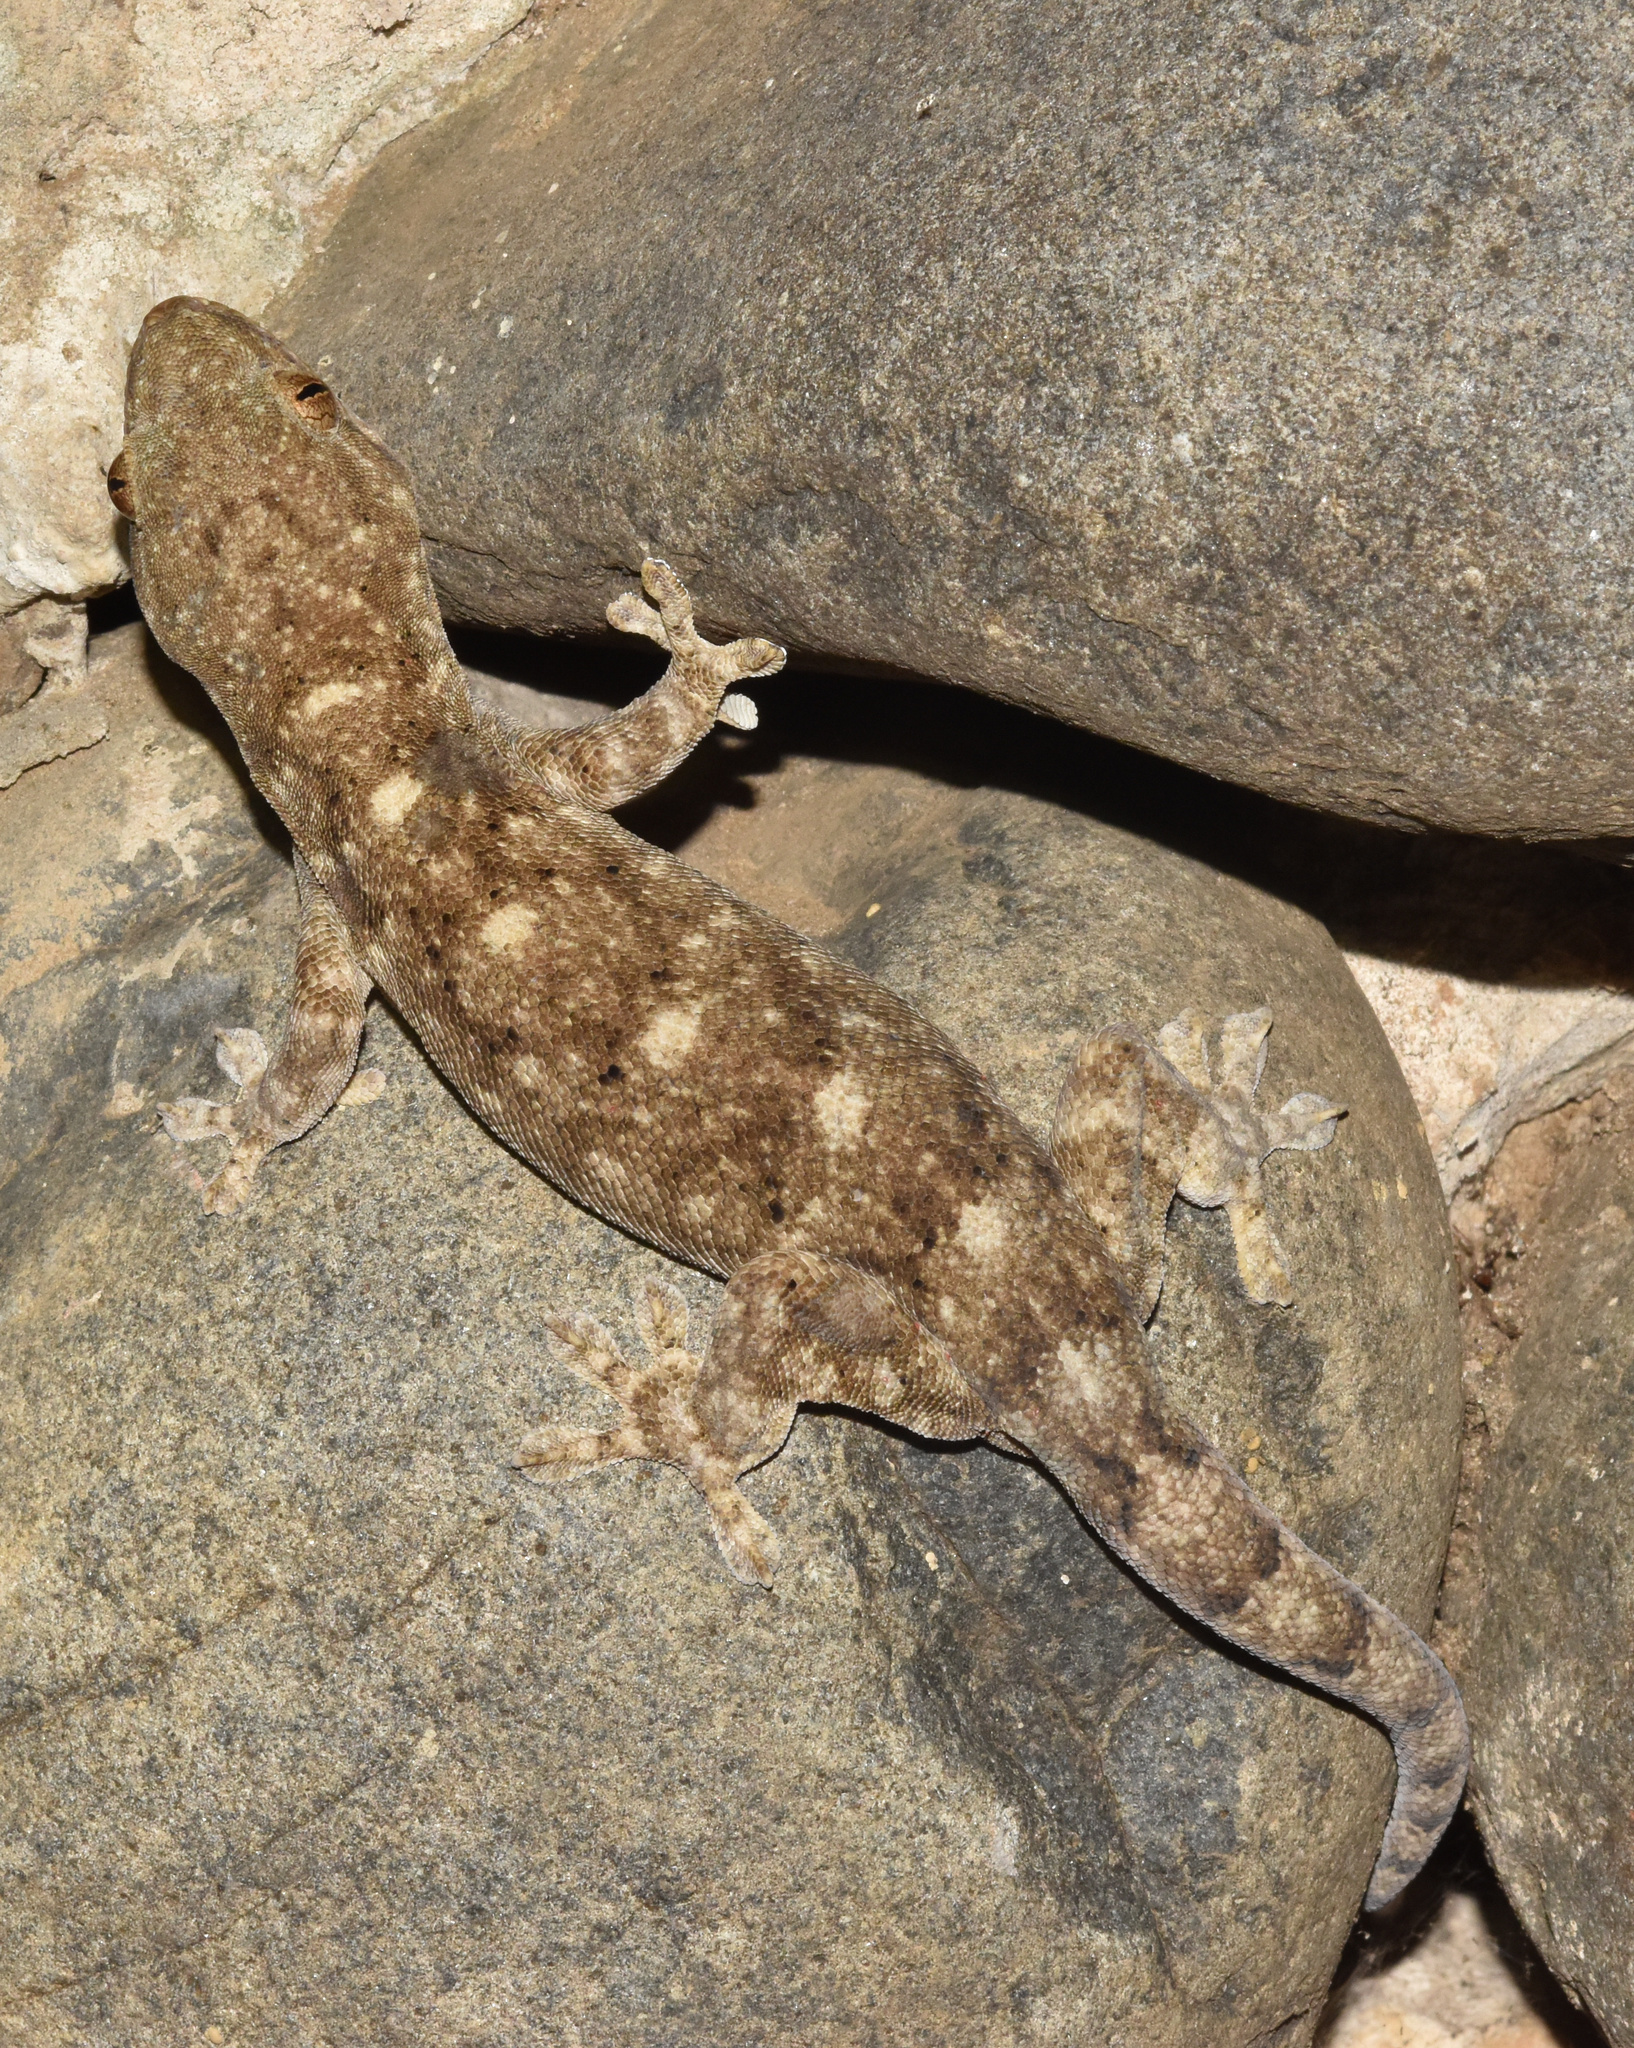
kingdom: Animalia
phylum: Chordata
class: Squamata
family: Gekkonidae
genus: Homopholis
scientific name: Homopholis walbergii
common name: Wahlberg’s velvet gecko
